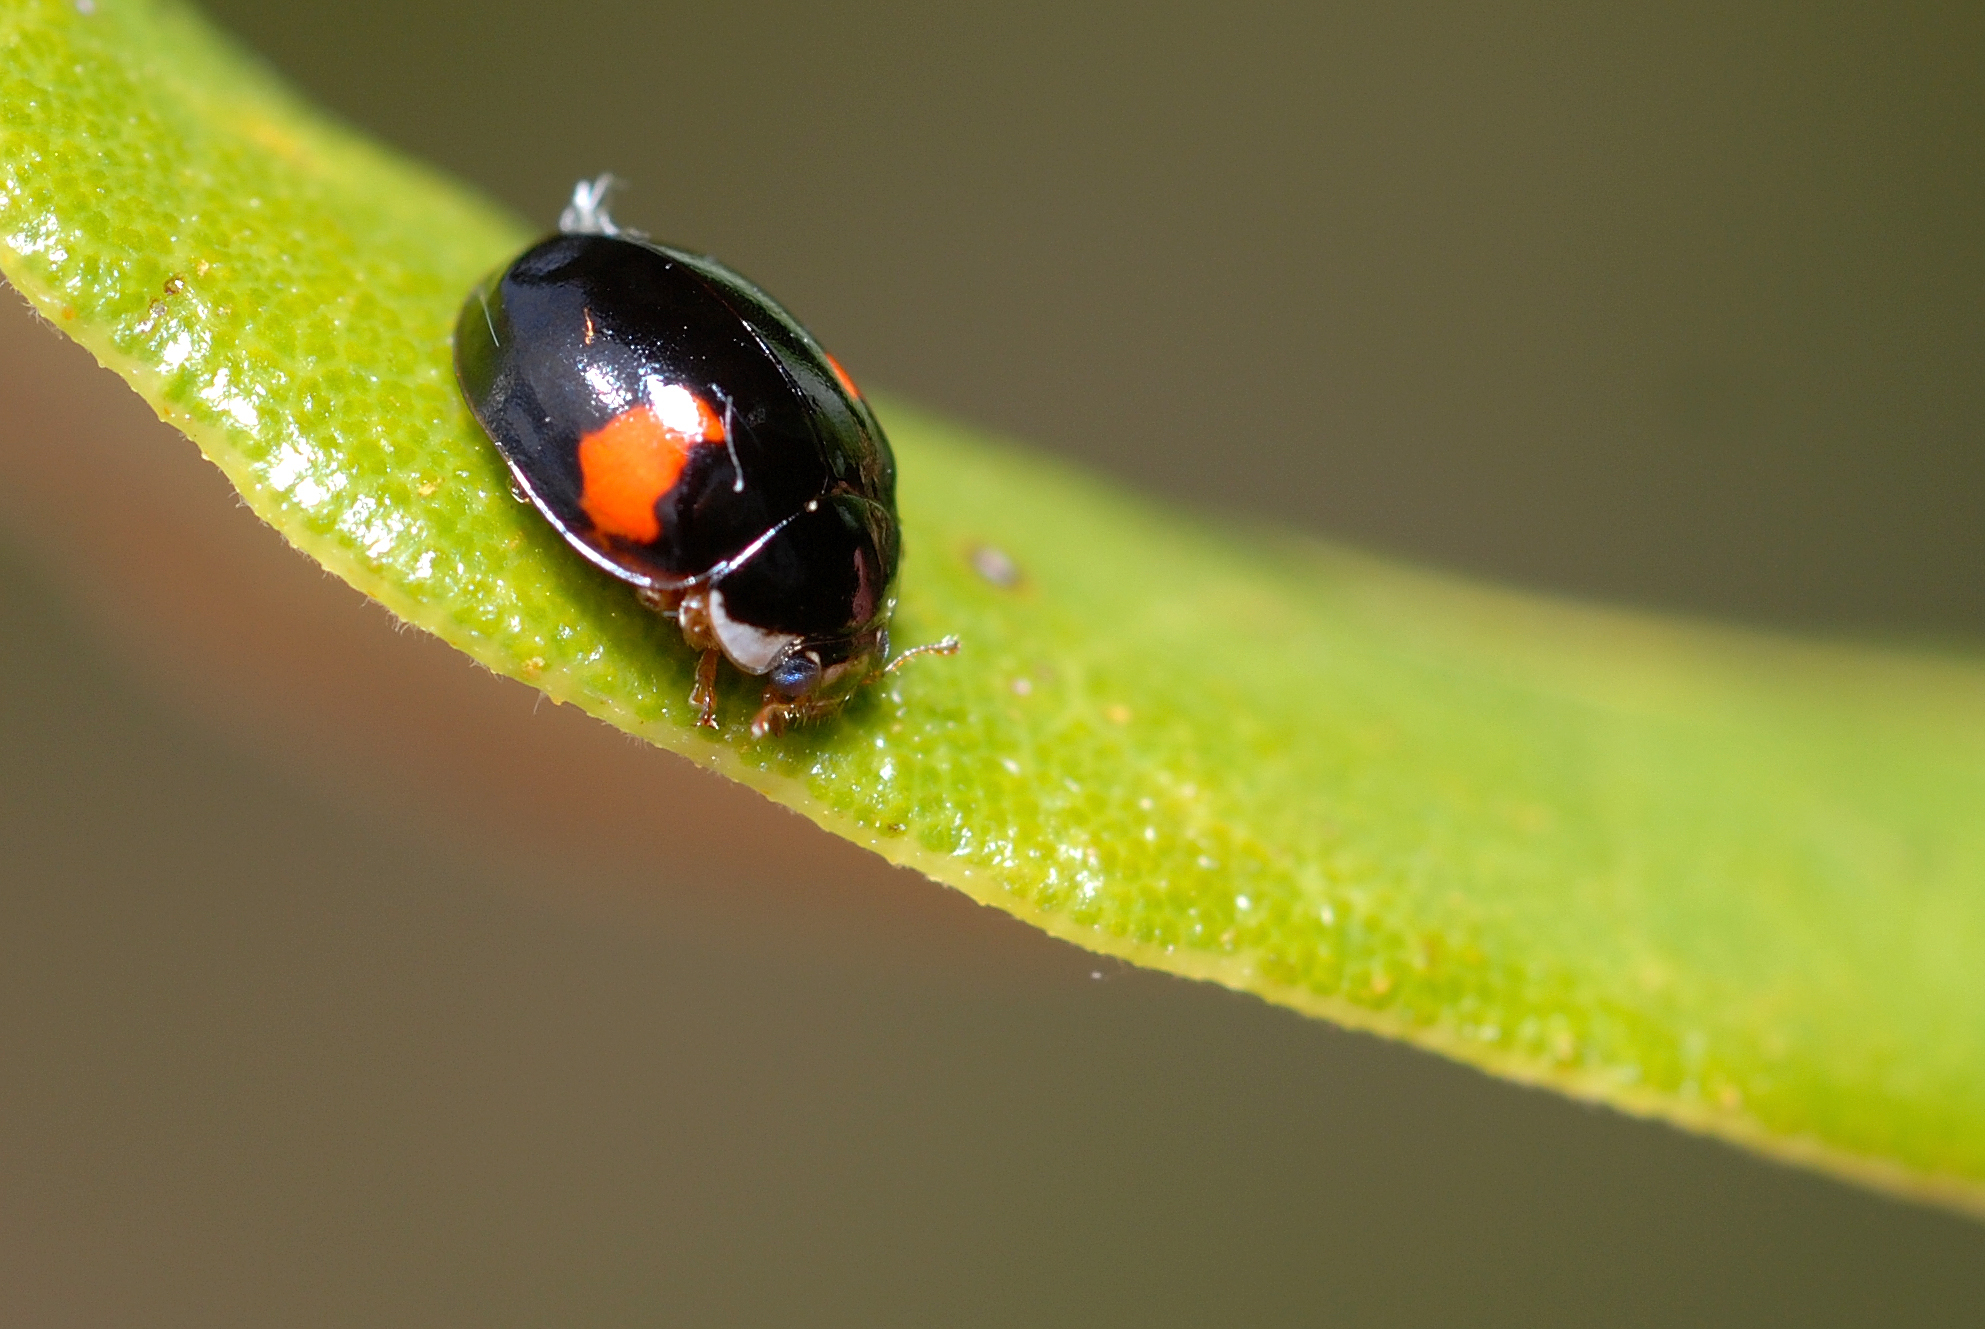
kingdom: Animalia
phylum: Arthropoda
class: Insecta
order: Coleoptera
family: Coccinellidae
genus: Adalia
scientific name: Adalia decempunctata
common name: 10-spot ladybird
